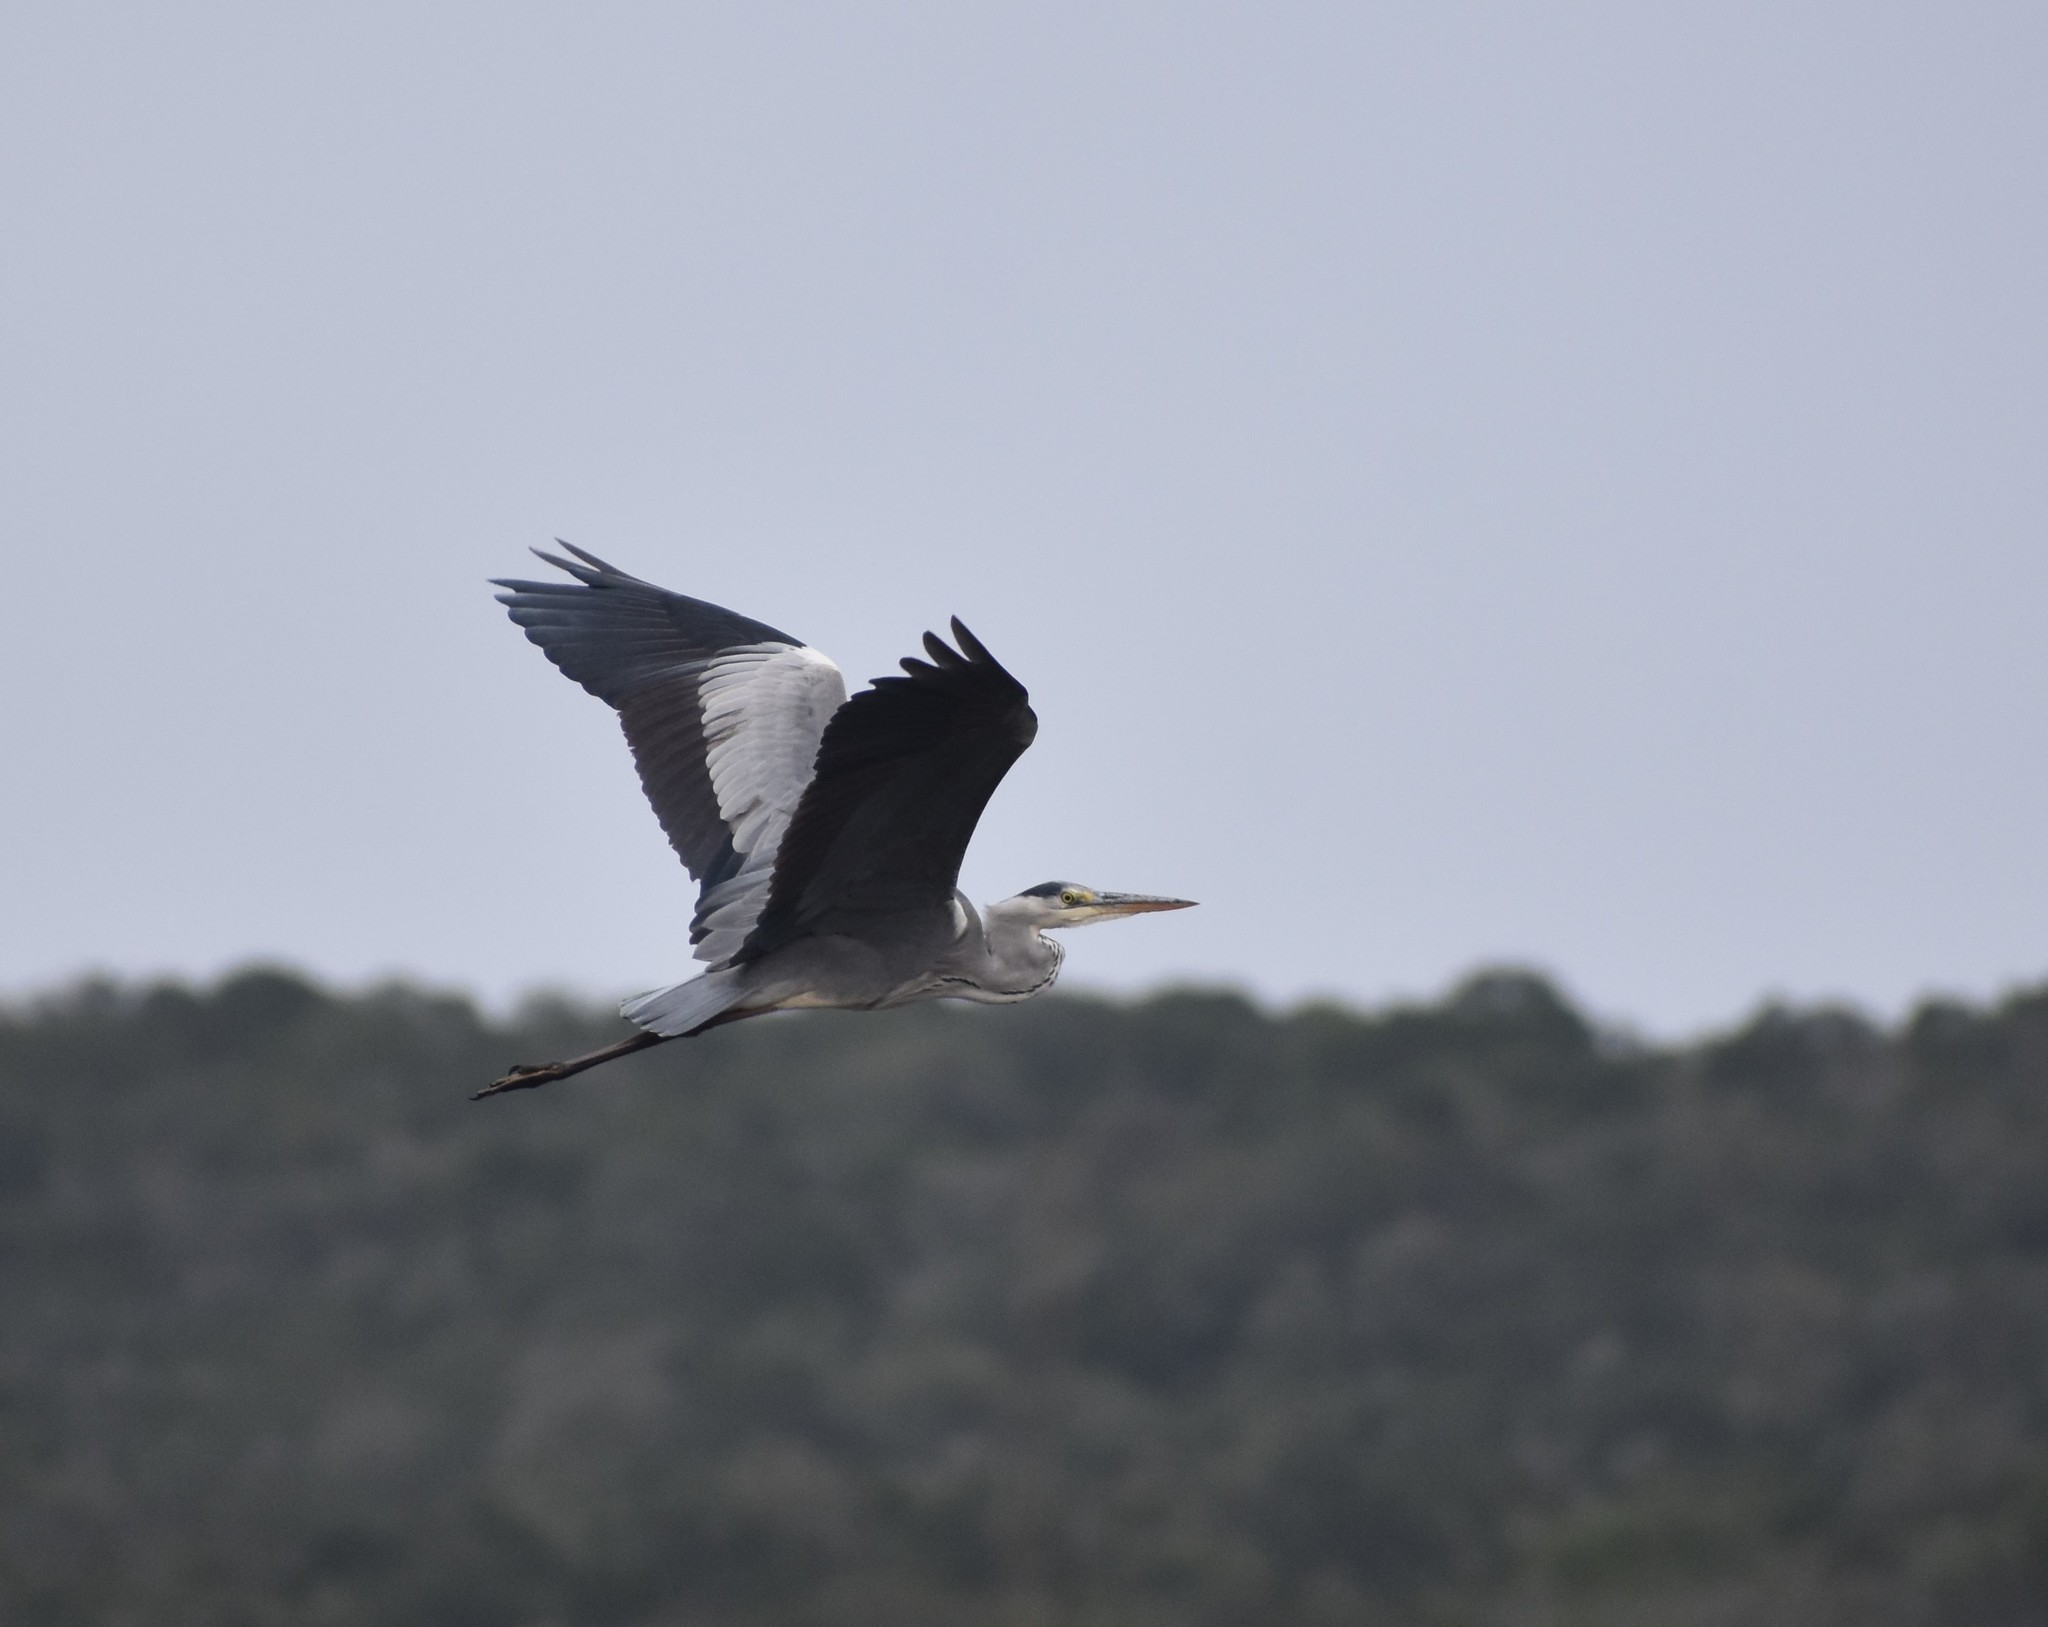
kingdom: Animalia
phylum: Chordata
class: Aves
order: Pelecaniformes
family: Ardeidae
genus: Ardea
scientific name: Ardea cinerea
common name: Grey heron
